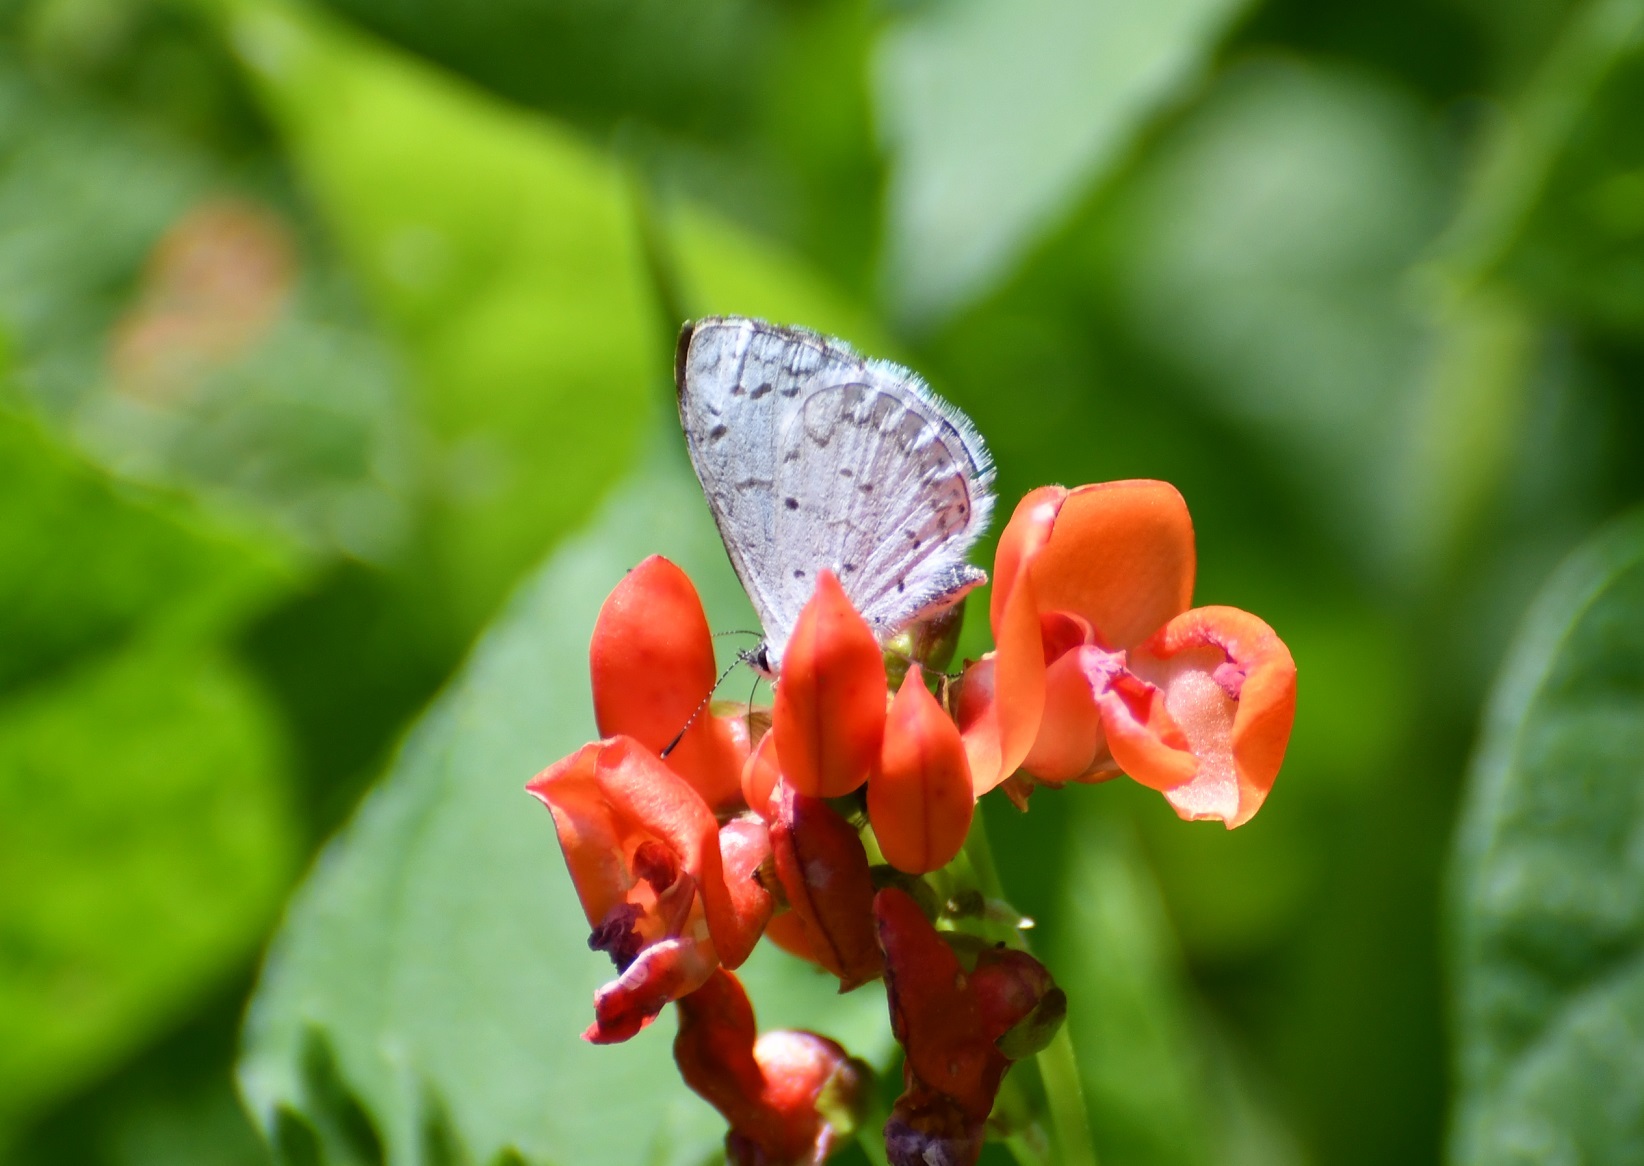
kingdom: Animalia
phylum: Arthropoda
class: Insecta
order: Lepidoptera
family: Lycaenidae
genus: Celastrina
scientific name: Celastrina ladon
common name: Spring azure
